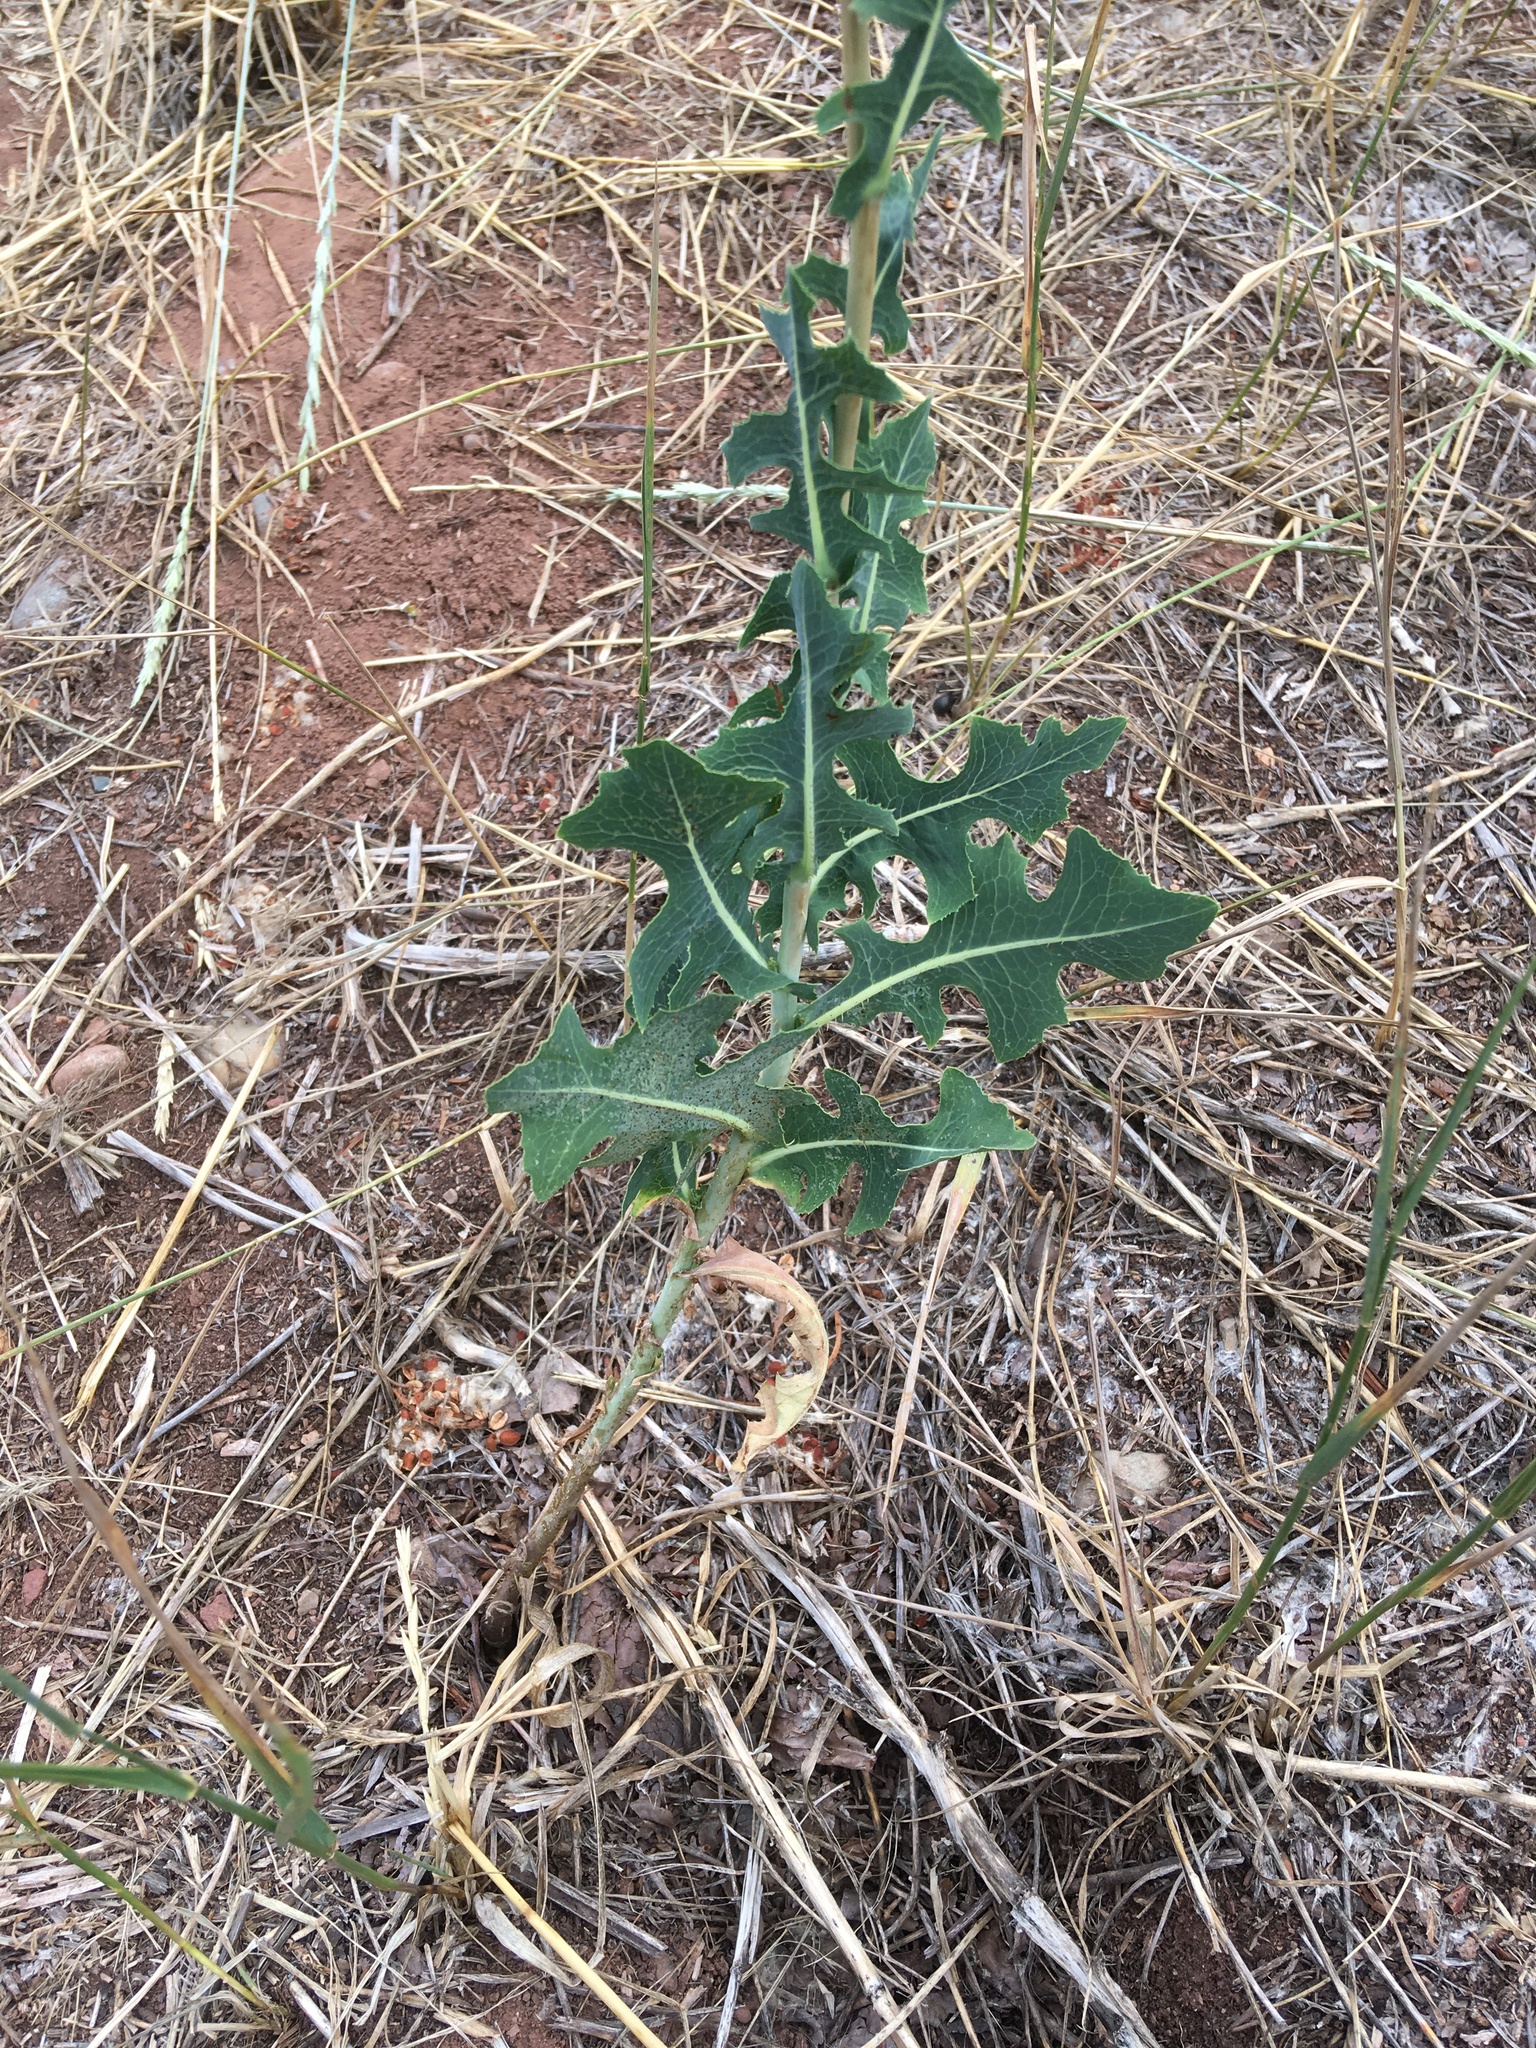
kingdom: Plantae
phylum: Tracheophyta
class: Magnoliopsida
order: Asterales
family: Asteraceae
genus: Lactuca
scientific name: Lactuca serriola
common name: Prickly lettuce
